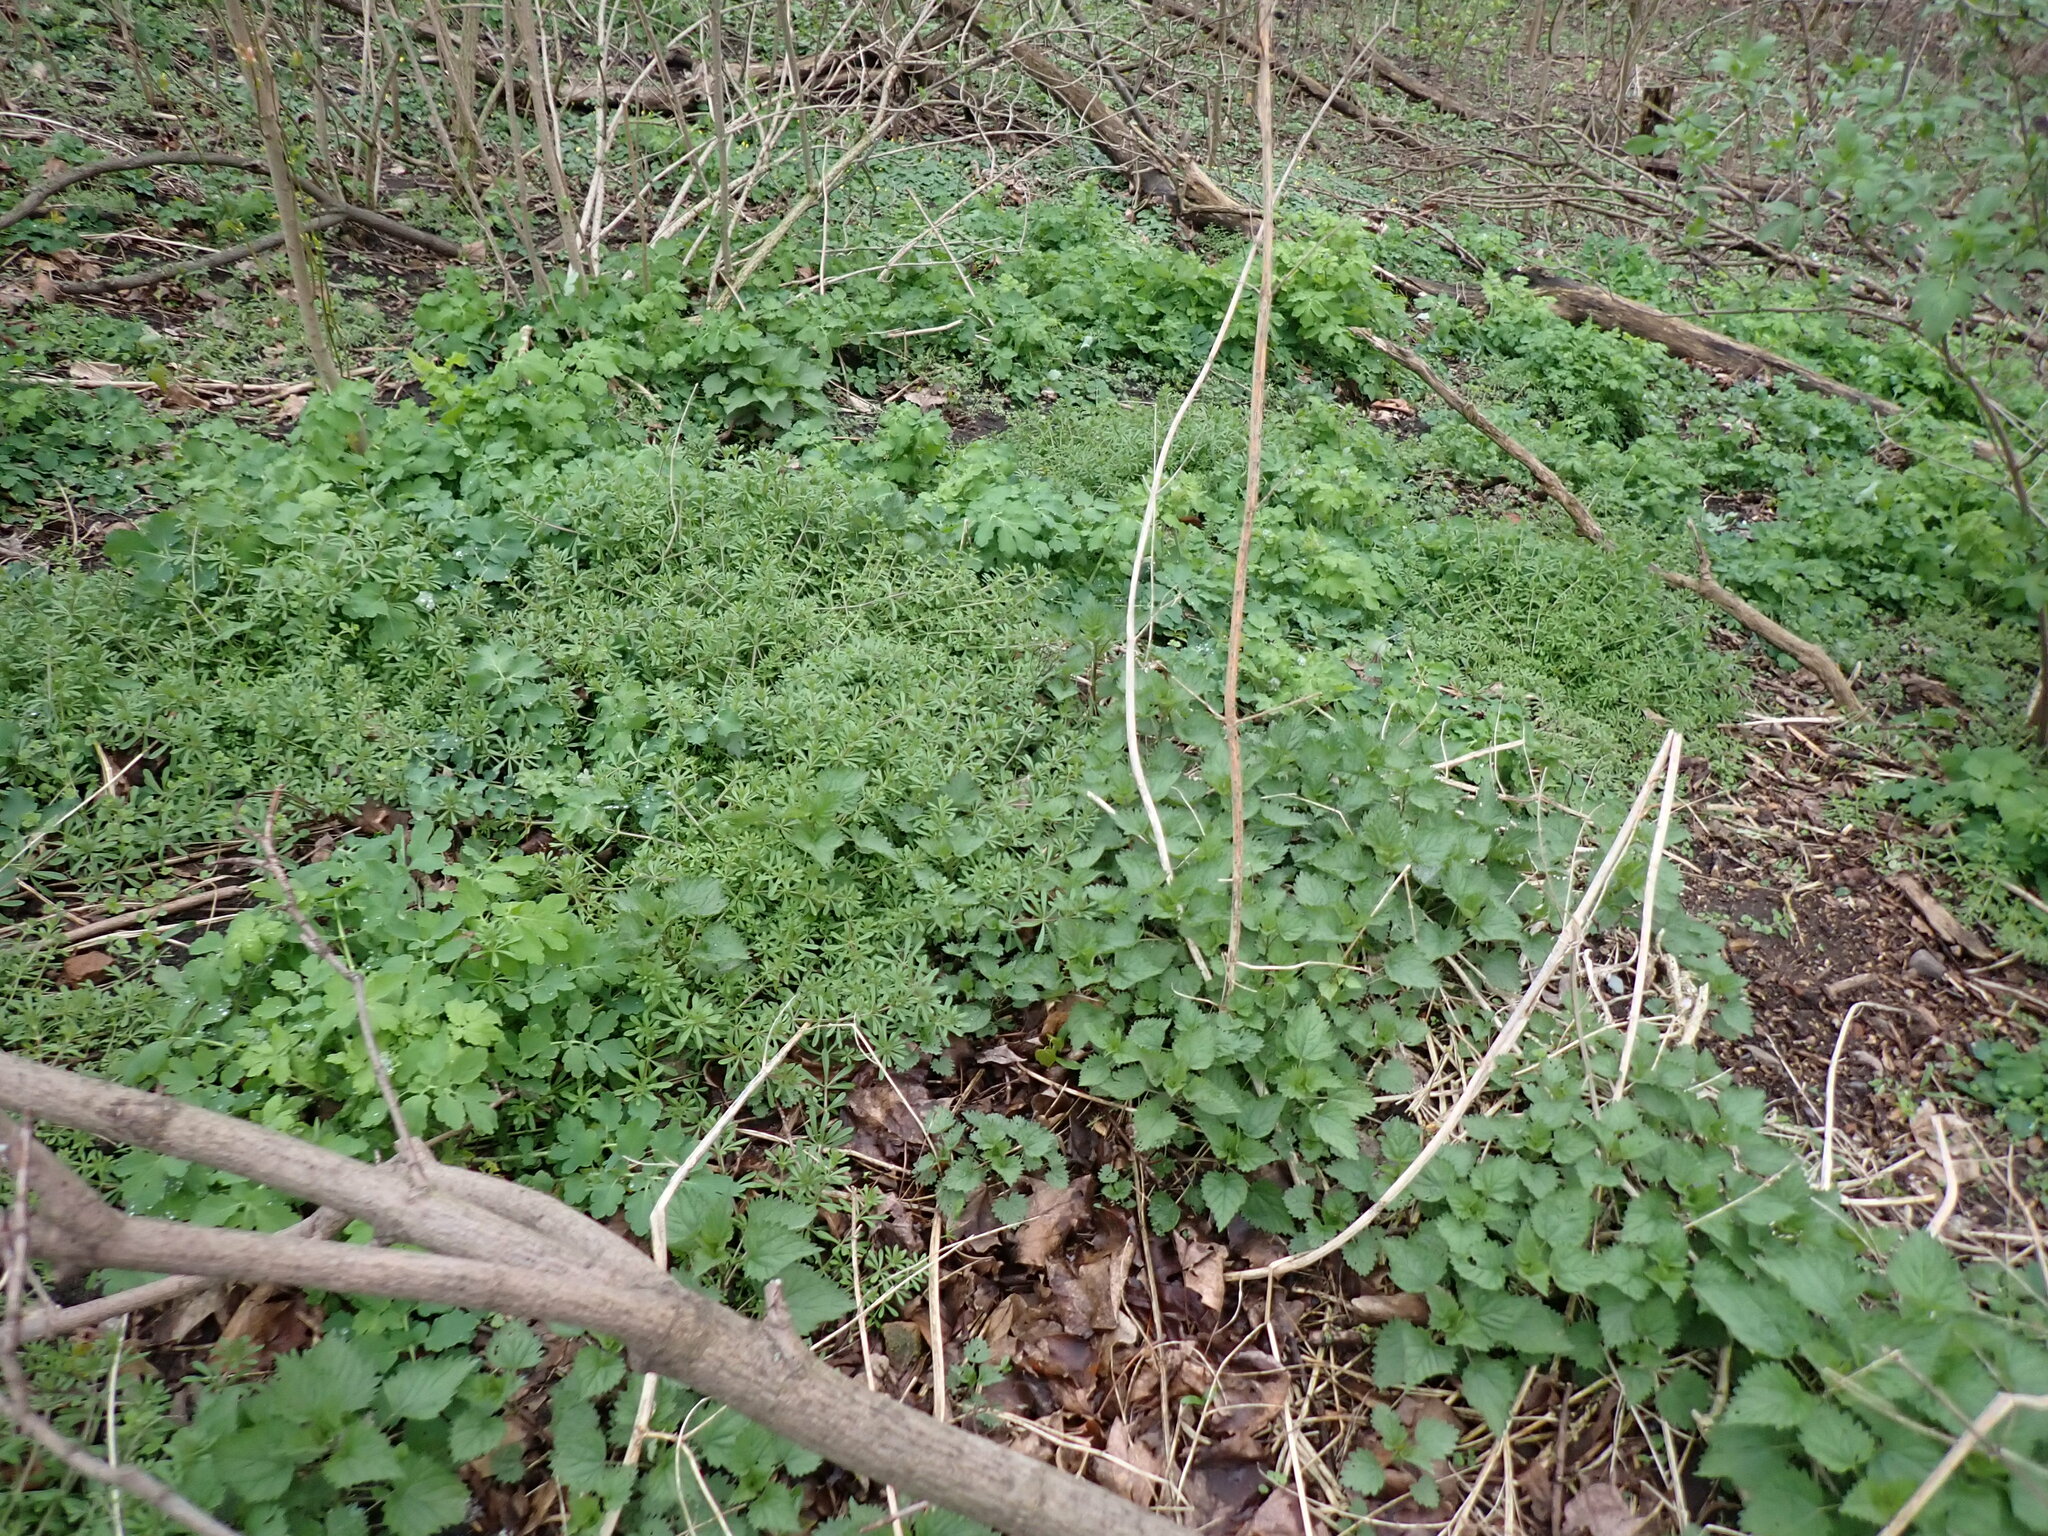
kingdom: Plantae
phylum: Tracheophyta
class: Magnoliopsida
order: Gentianales
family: Rubiaceae
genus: Galium
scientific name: Galium aparine
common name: Cleavers
